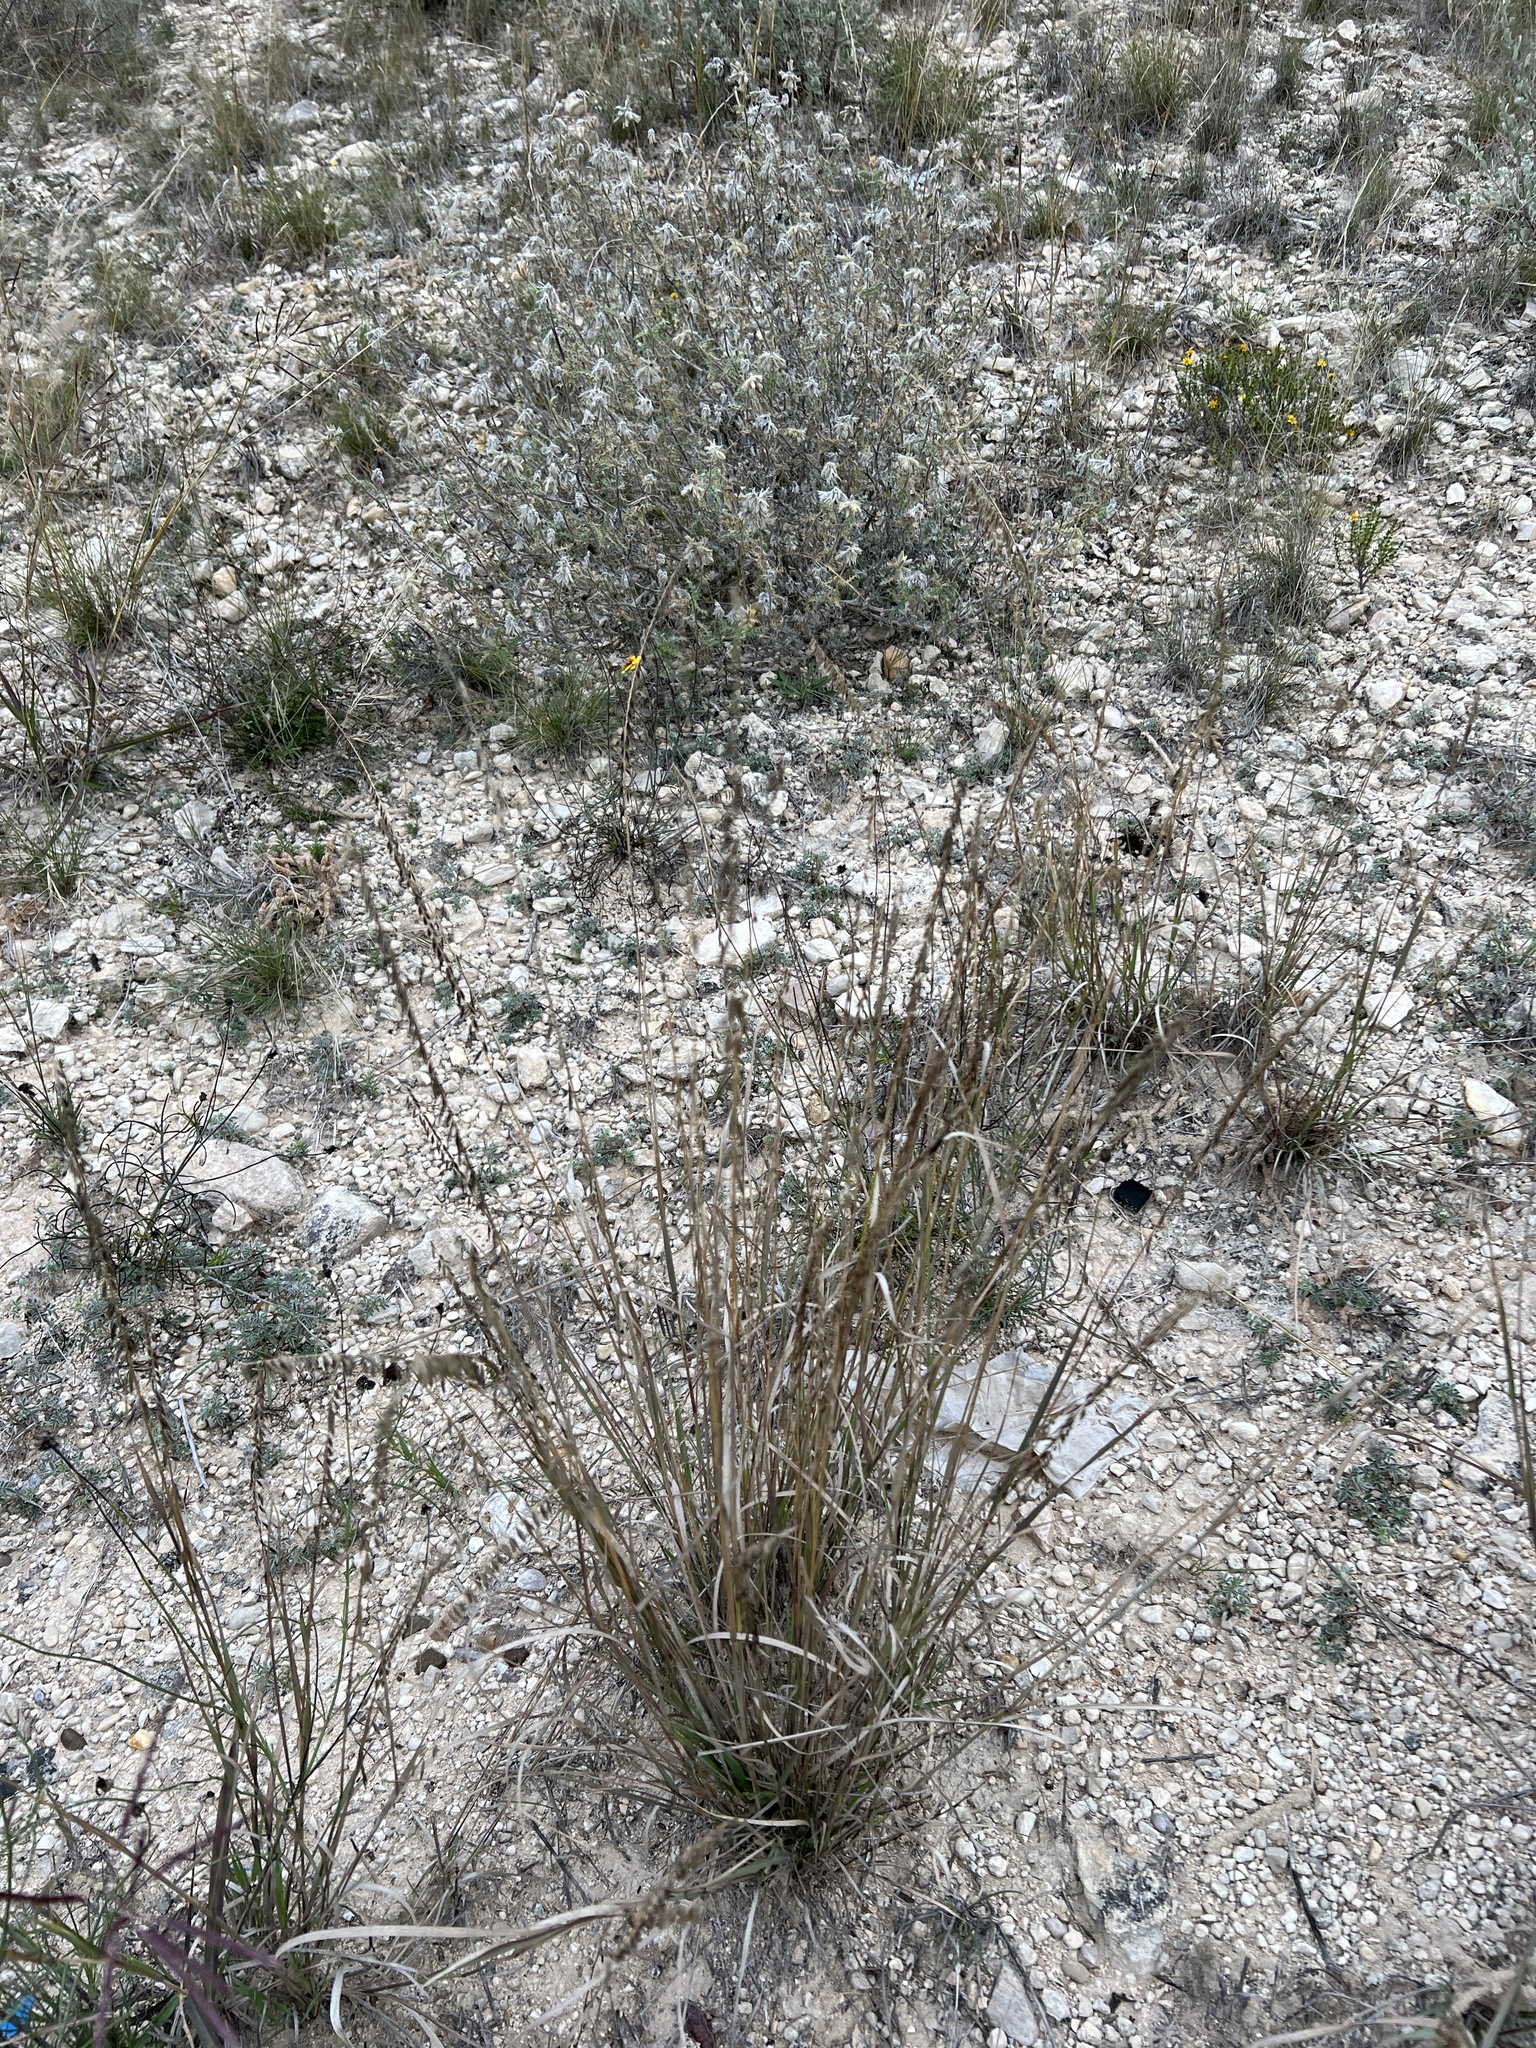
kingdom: Plantae
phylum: Tracheophyta
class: Liliopsida
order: Poales
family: Poaceae
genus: Bouteloua
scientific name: Bouteloua curtipendula
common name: Side-oats grama
